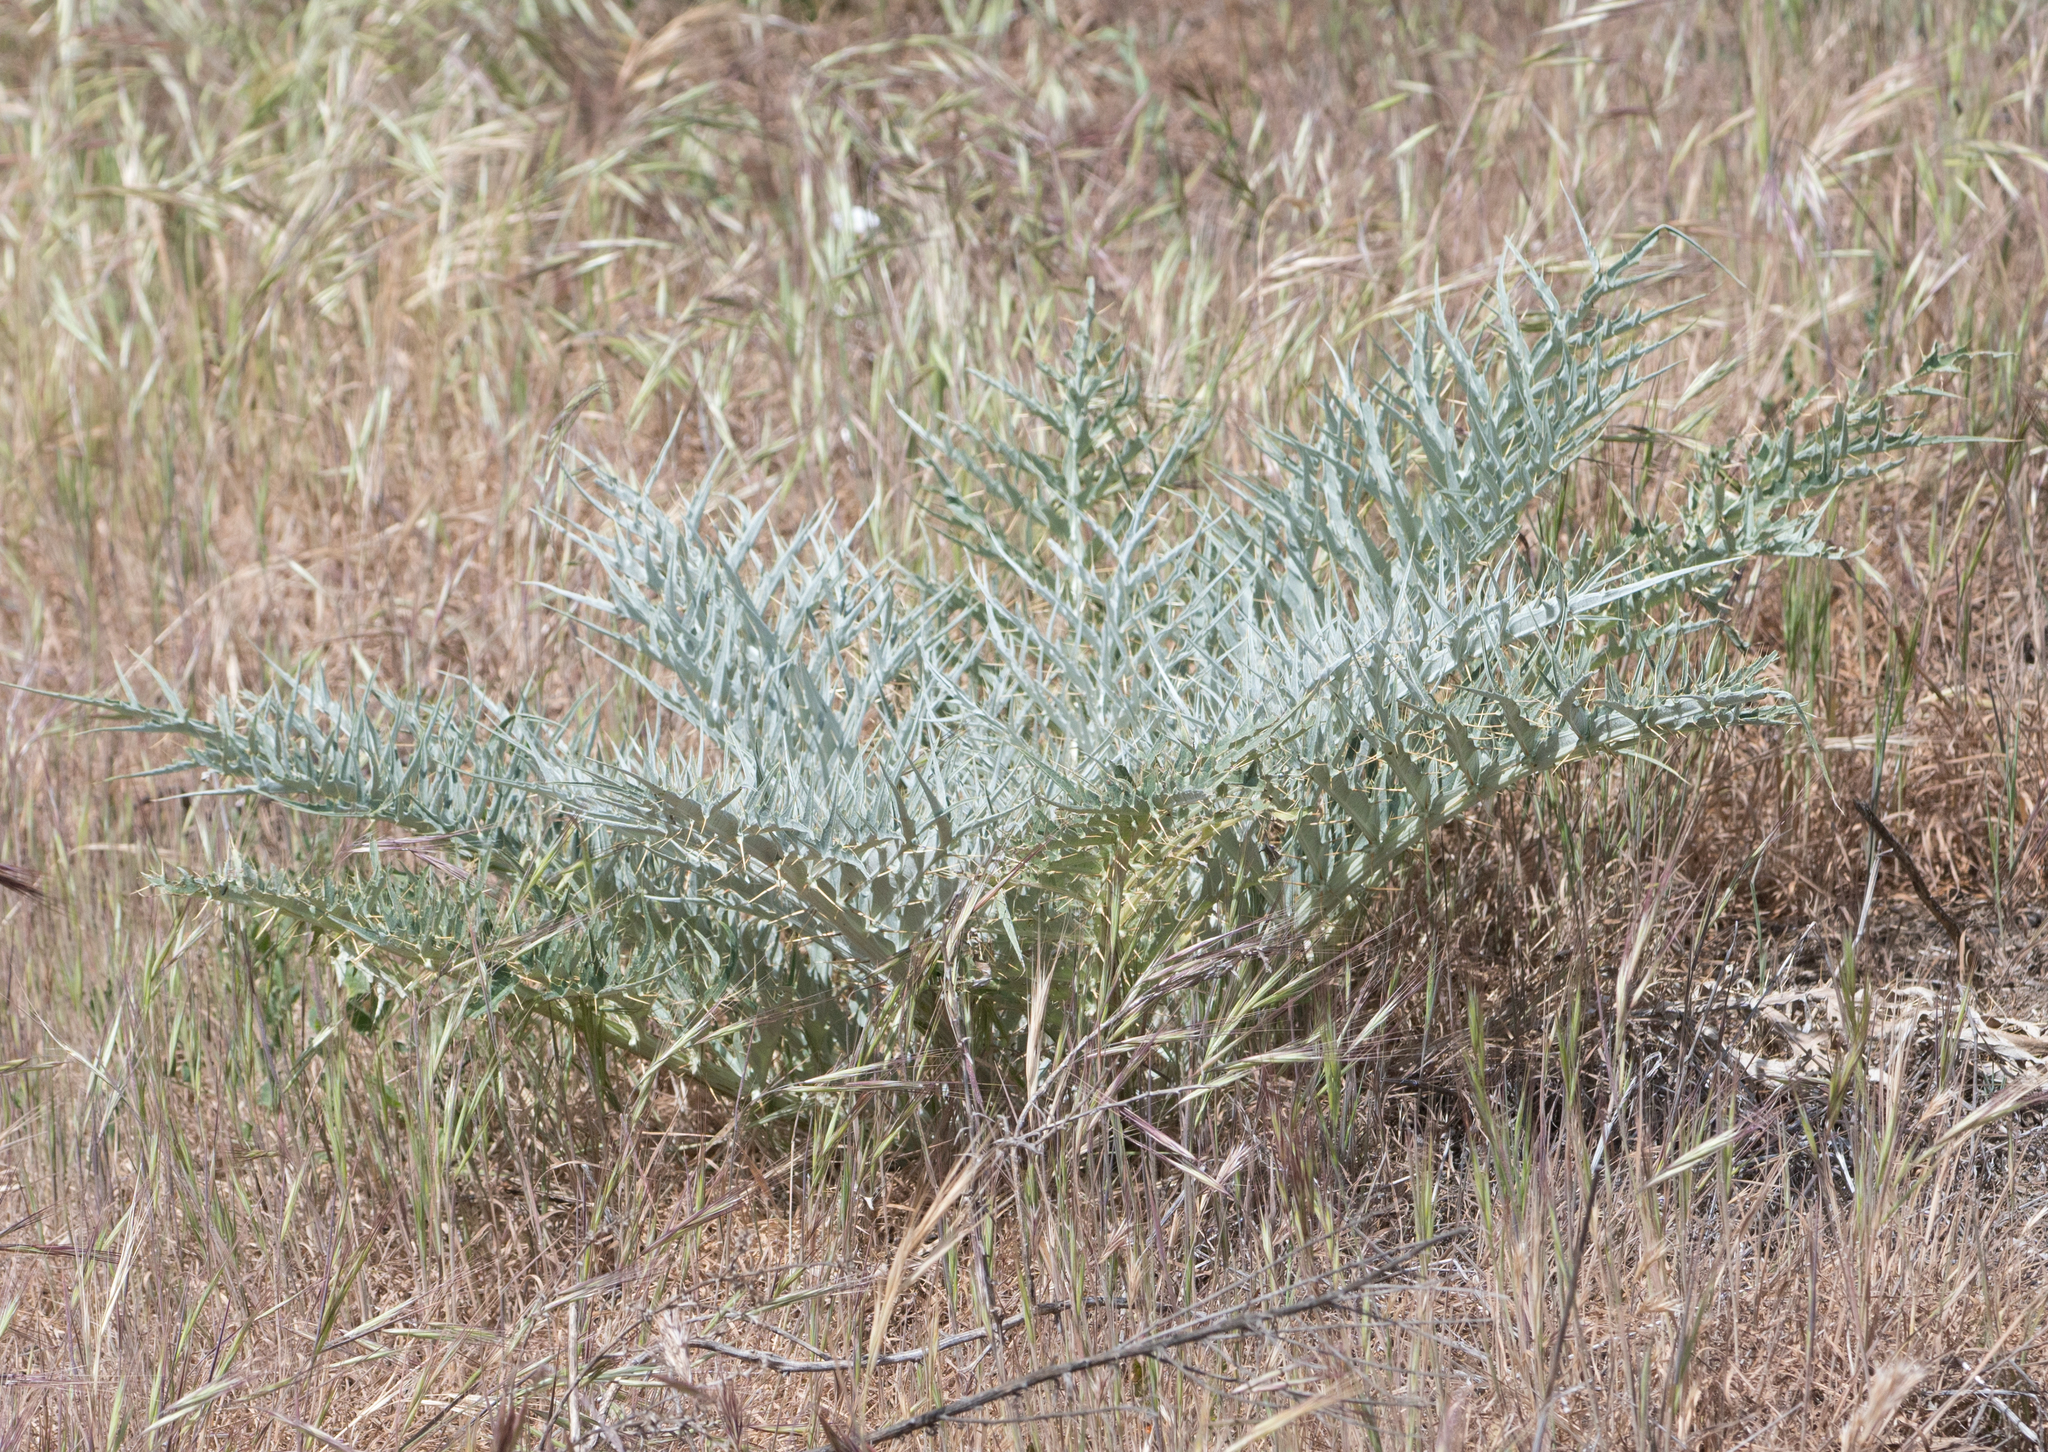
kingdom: Plantae
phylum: Tracheophyta
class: Magnoliopsida
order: Asterales
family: Asteraceae
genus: Cynara
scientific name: Cynara cardunculus
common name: Globe artichoke
